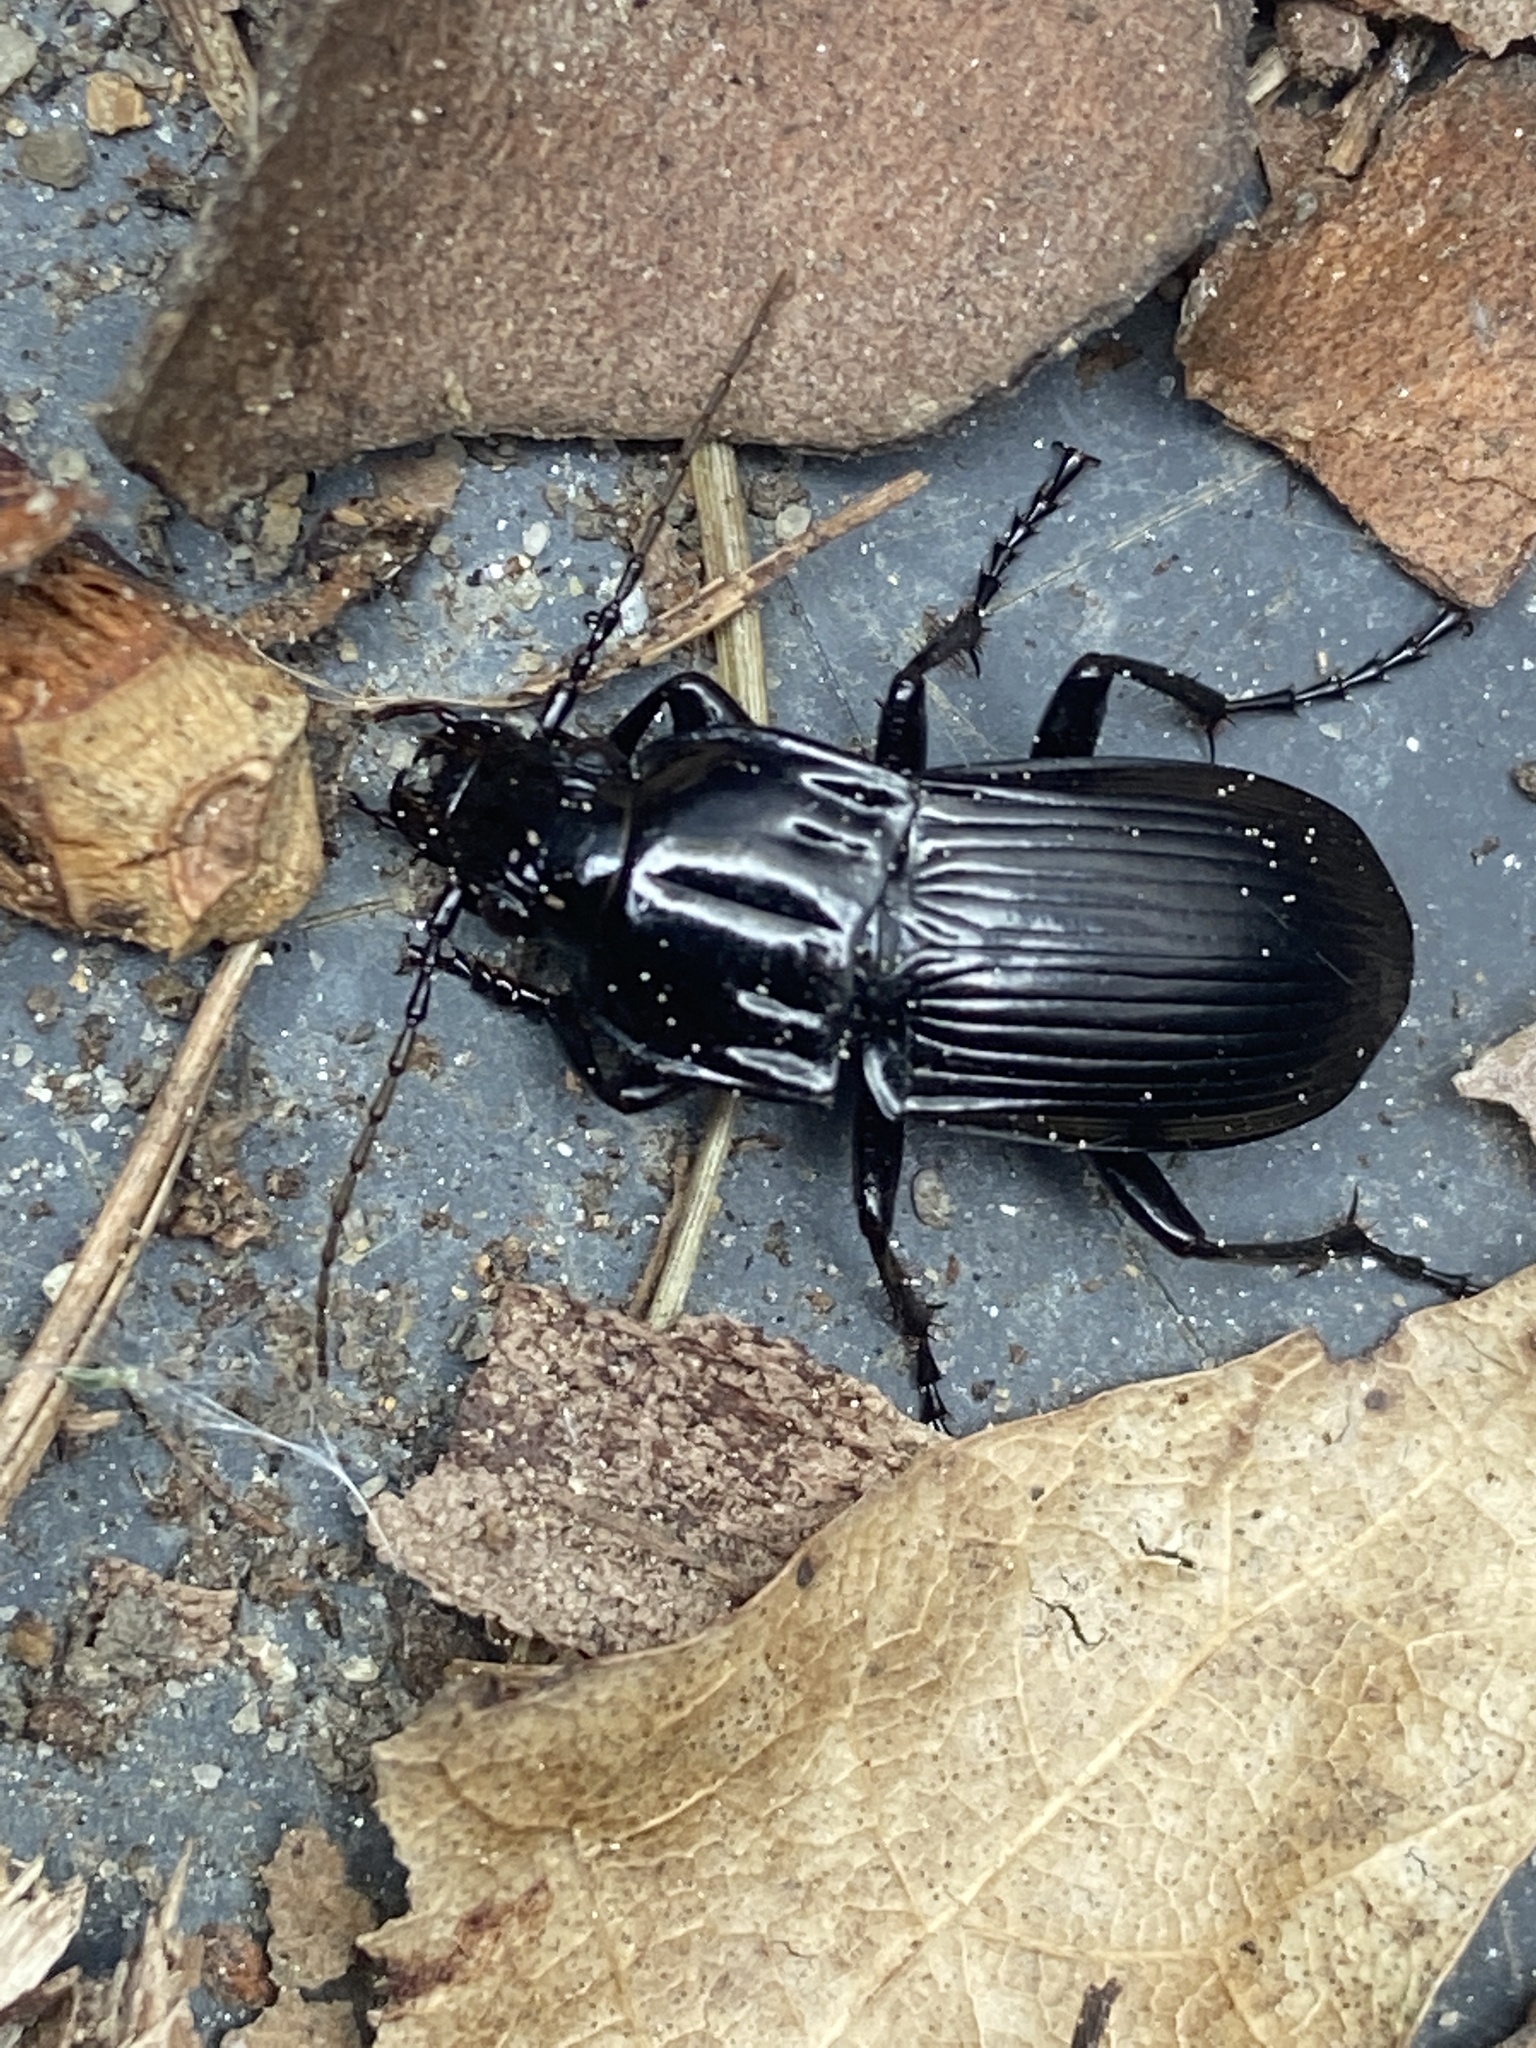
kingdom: Animalia
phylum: Arthropoda
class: Insecta
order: Coleoptera
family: Carabidae
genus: Abax
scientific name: Abax parallelepipedus
